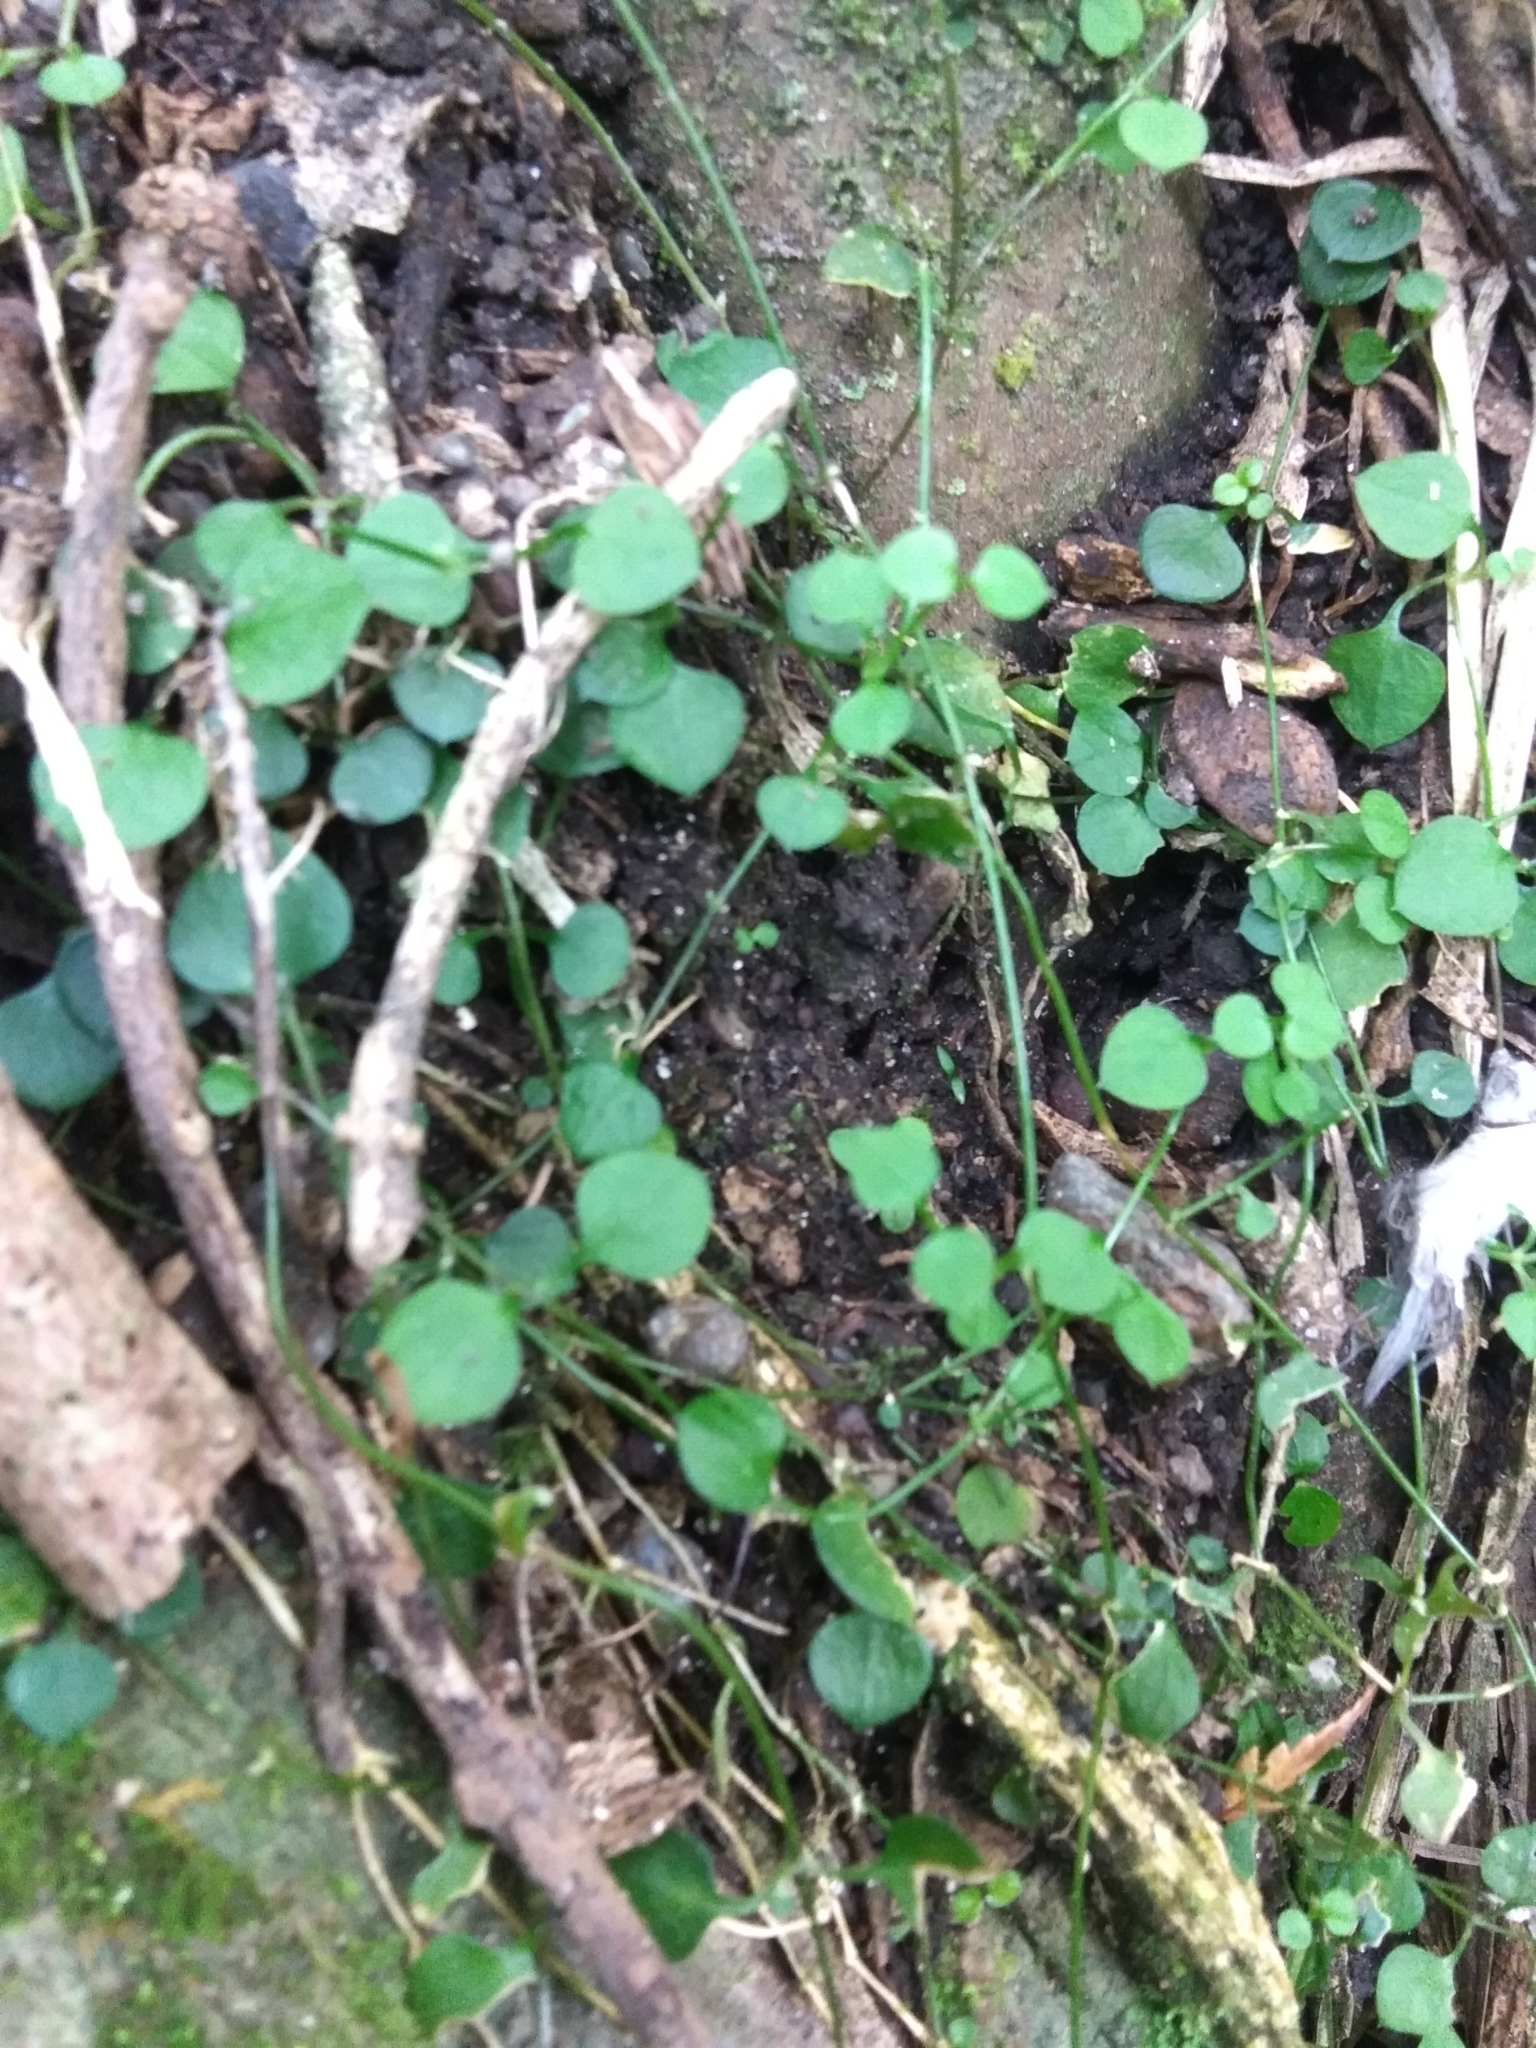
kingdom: Plantae
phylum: Tracheophyta
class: Magnoliopsida
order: Caryophyllales
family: Caryophyllaceae
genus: Stellaria
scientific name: Stellaria parviflora
